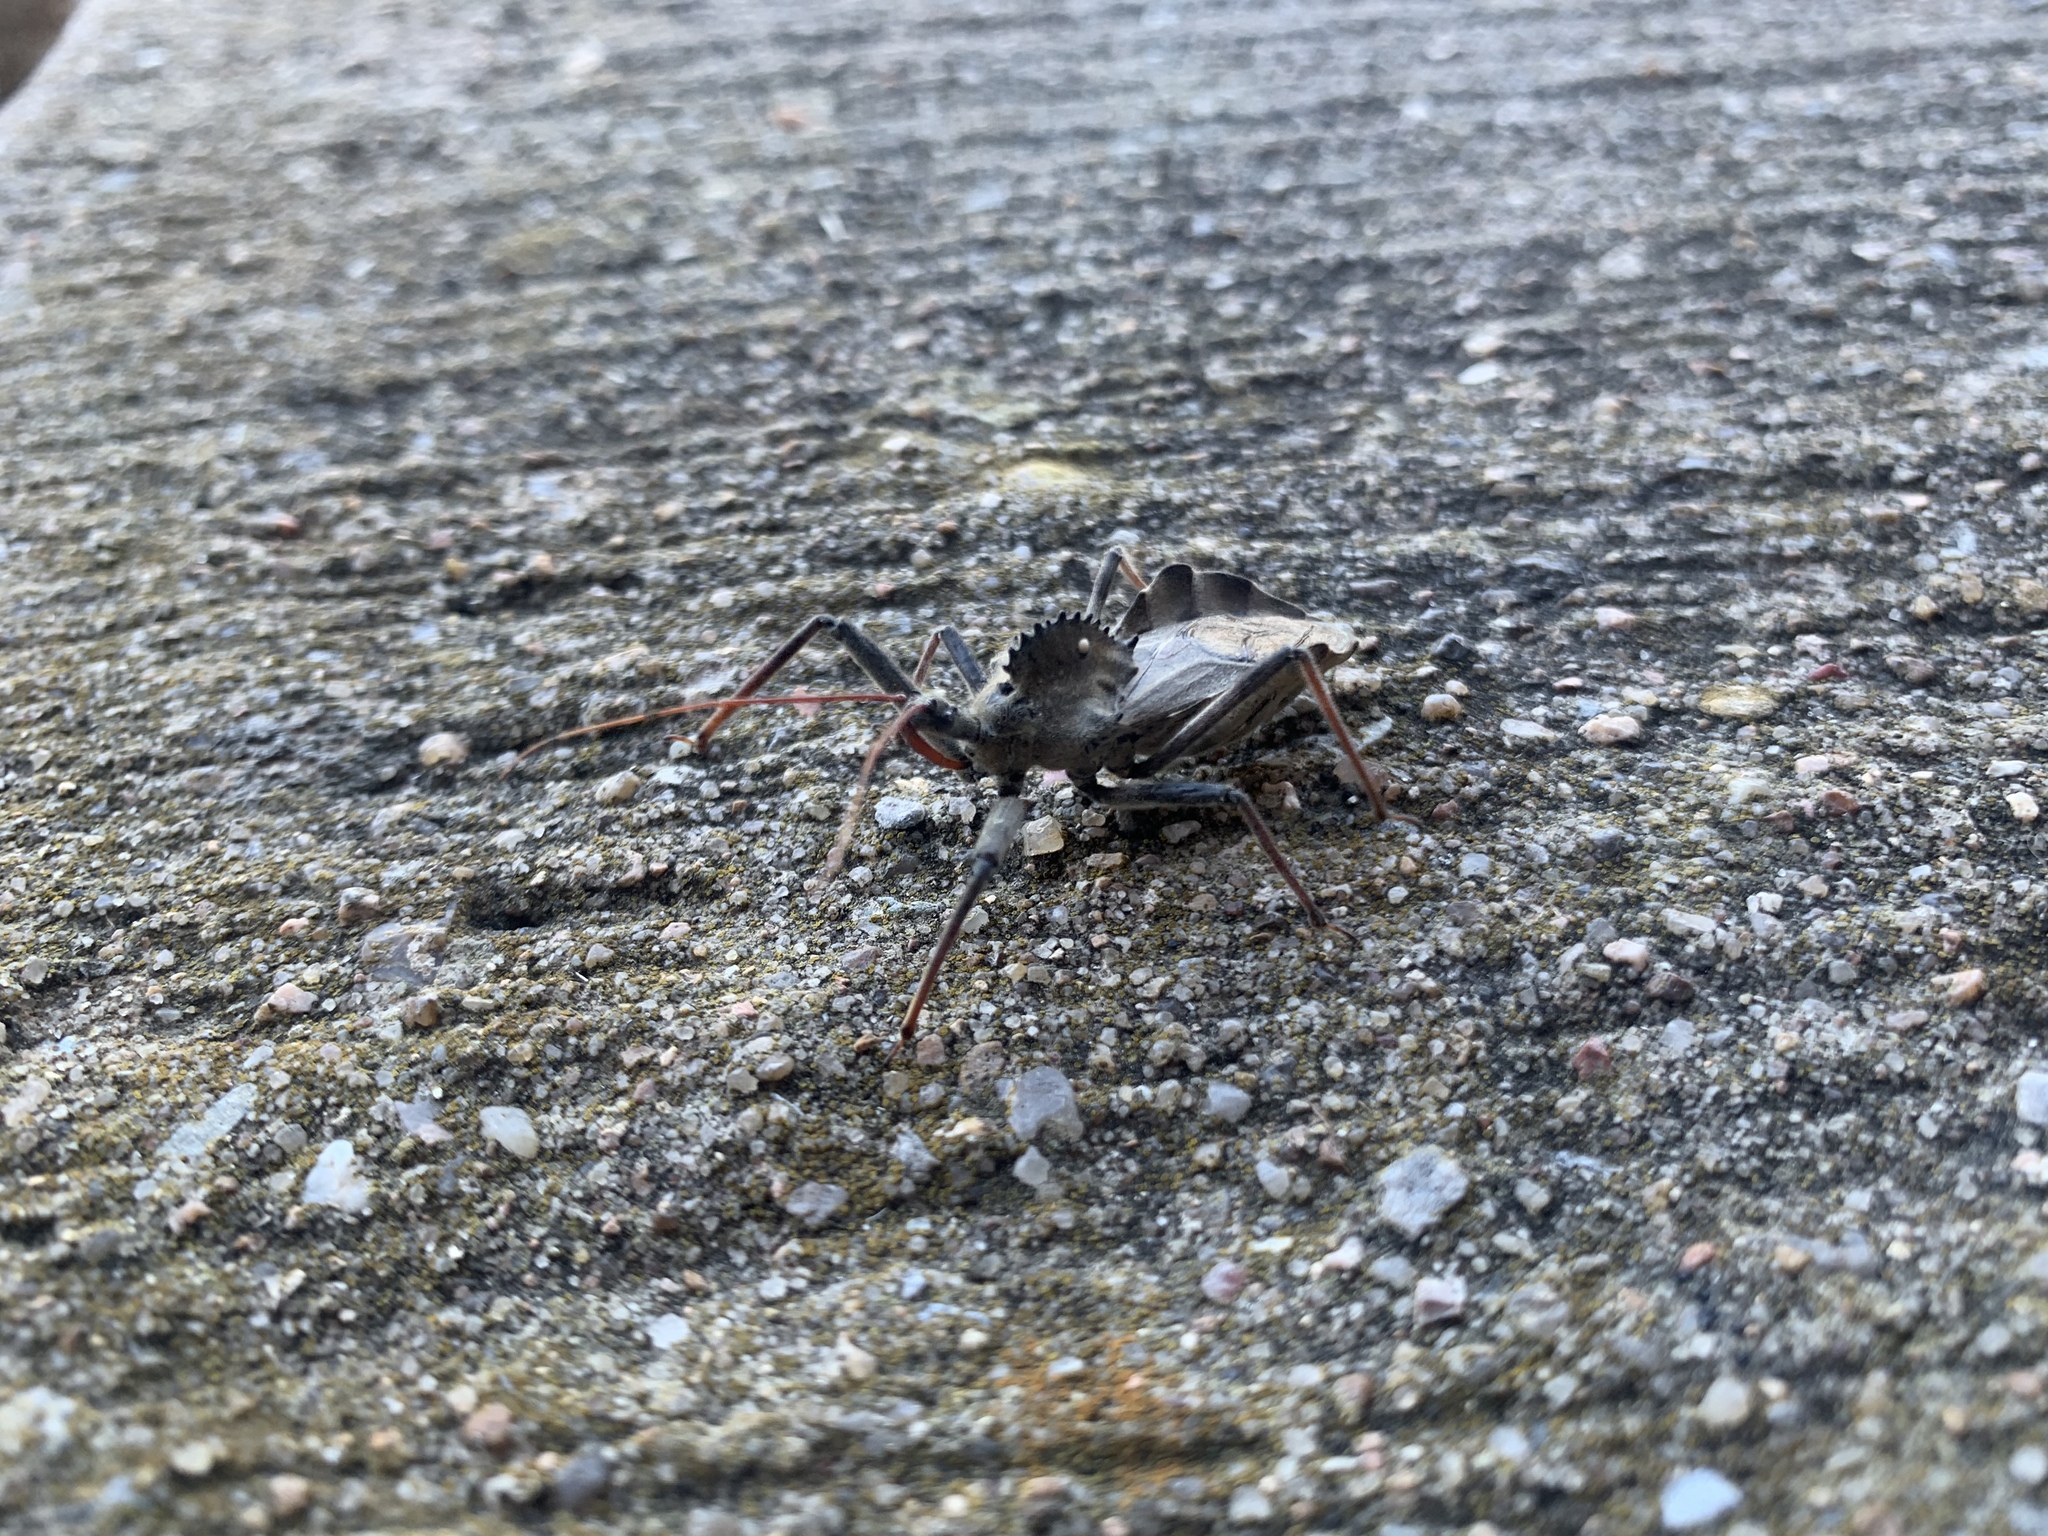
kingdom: Animalia
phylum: Arthropoda
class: Insecta
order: Hemiptera
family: Reduviidae
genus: Arilus
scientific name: Arilus cristatus
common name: North american wheel bug
